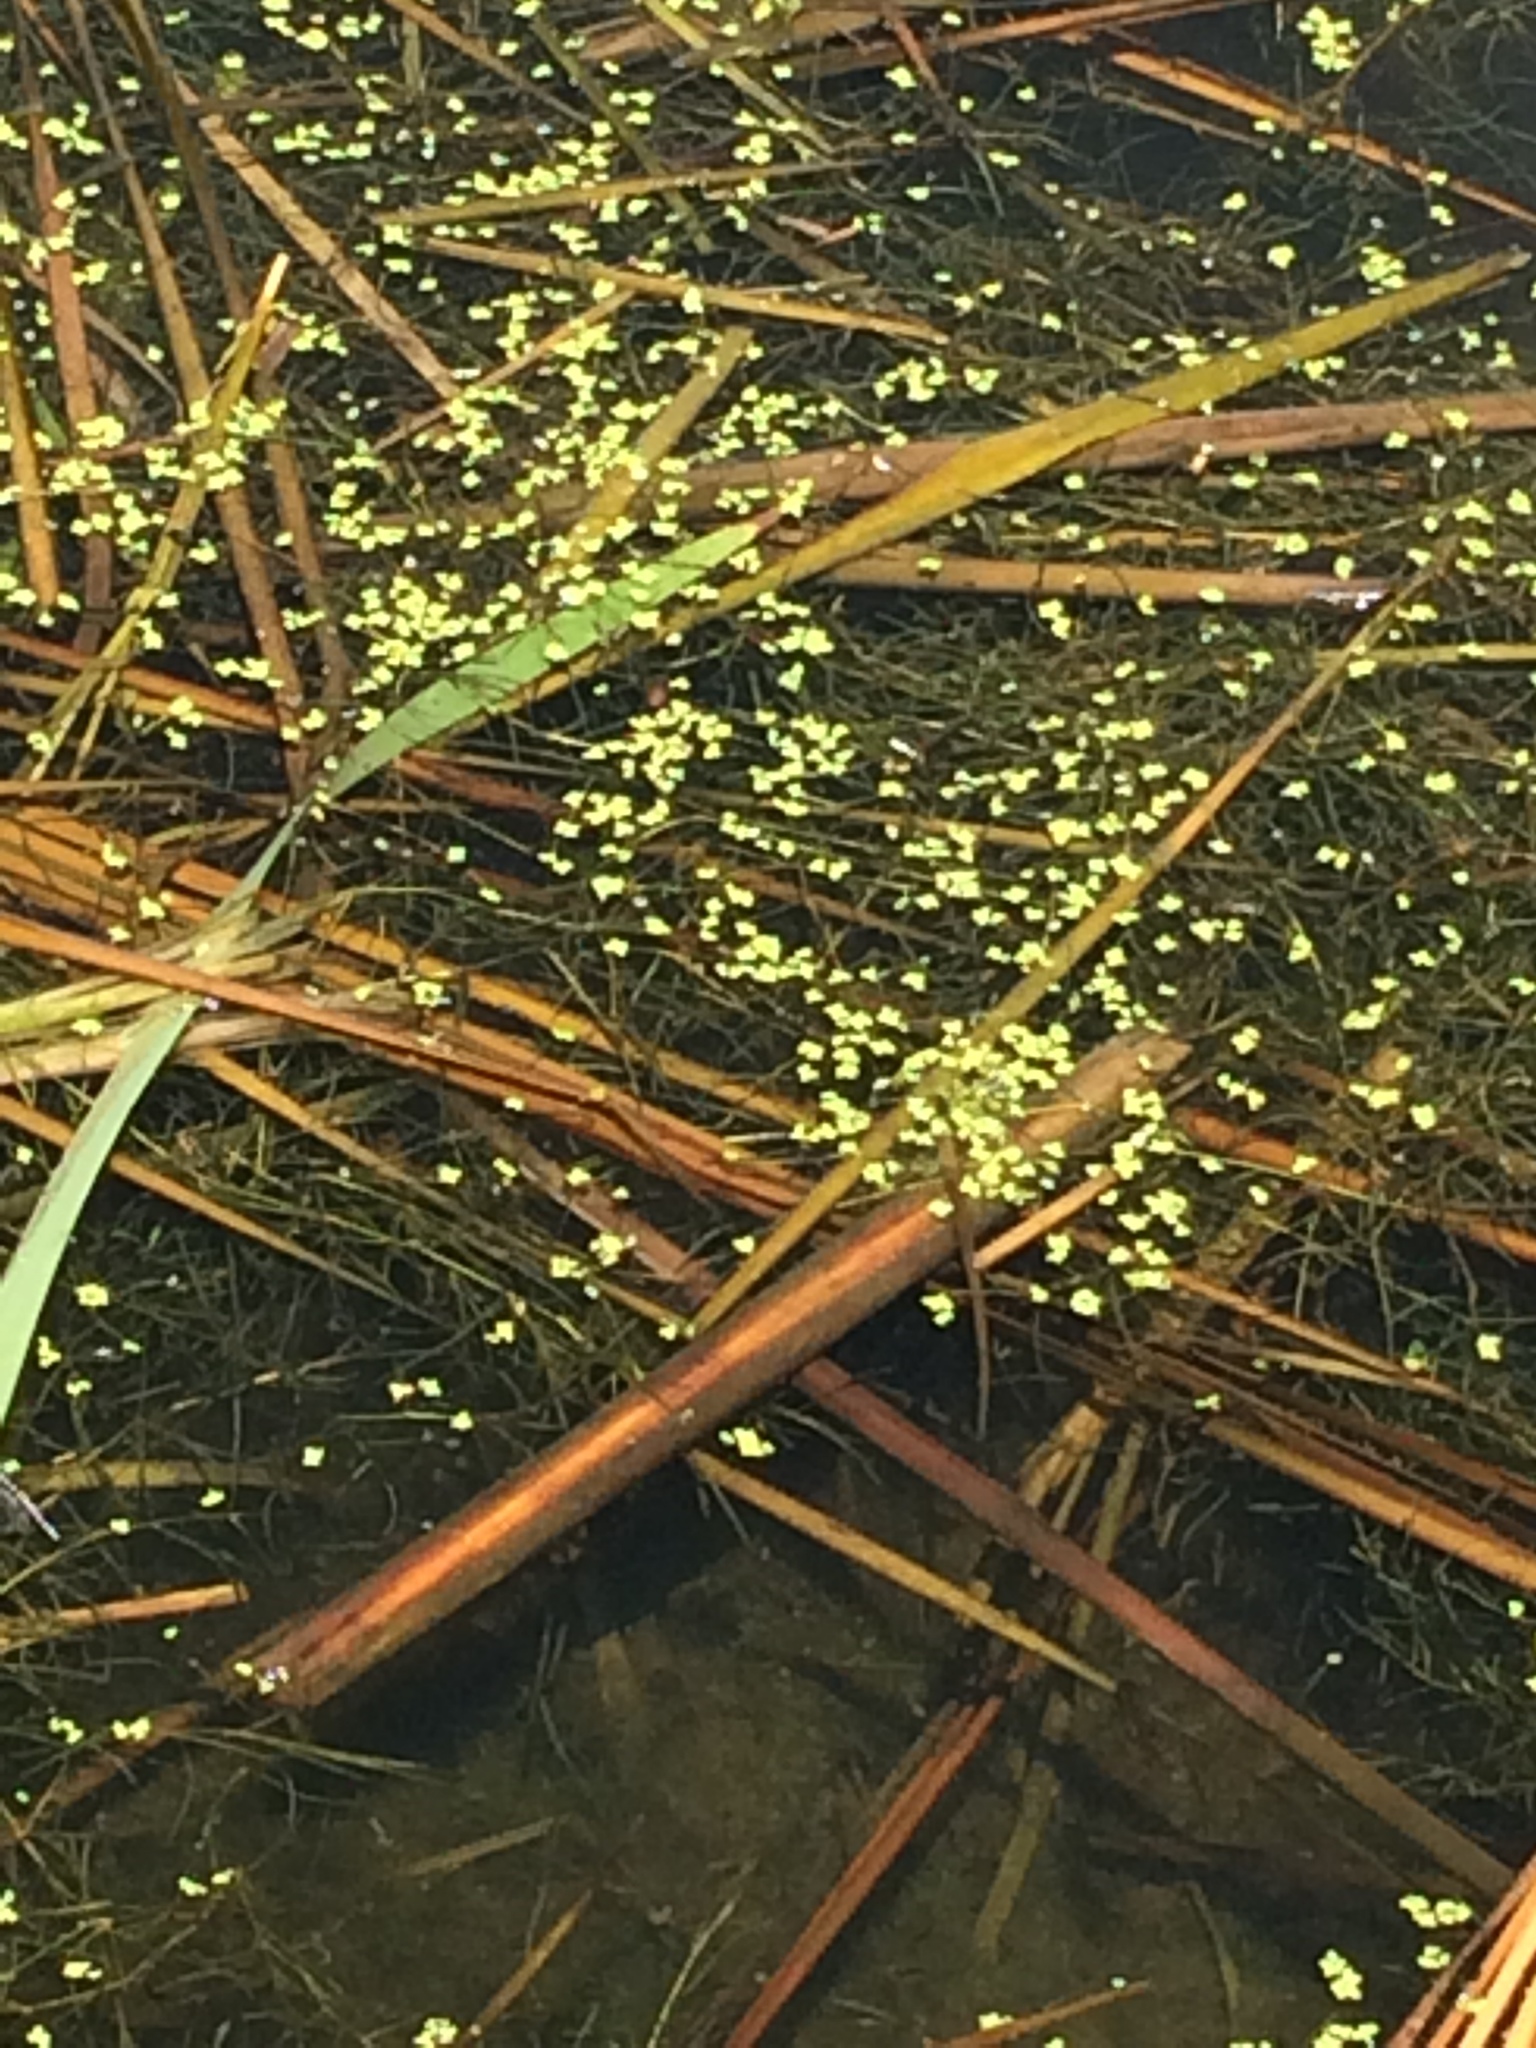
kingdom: Plantae
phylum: Tracheophyta
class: Liliopsida
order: Alismatales
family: Araceae
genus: Lemna
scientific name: Lemna minor
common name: Common duckweed
